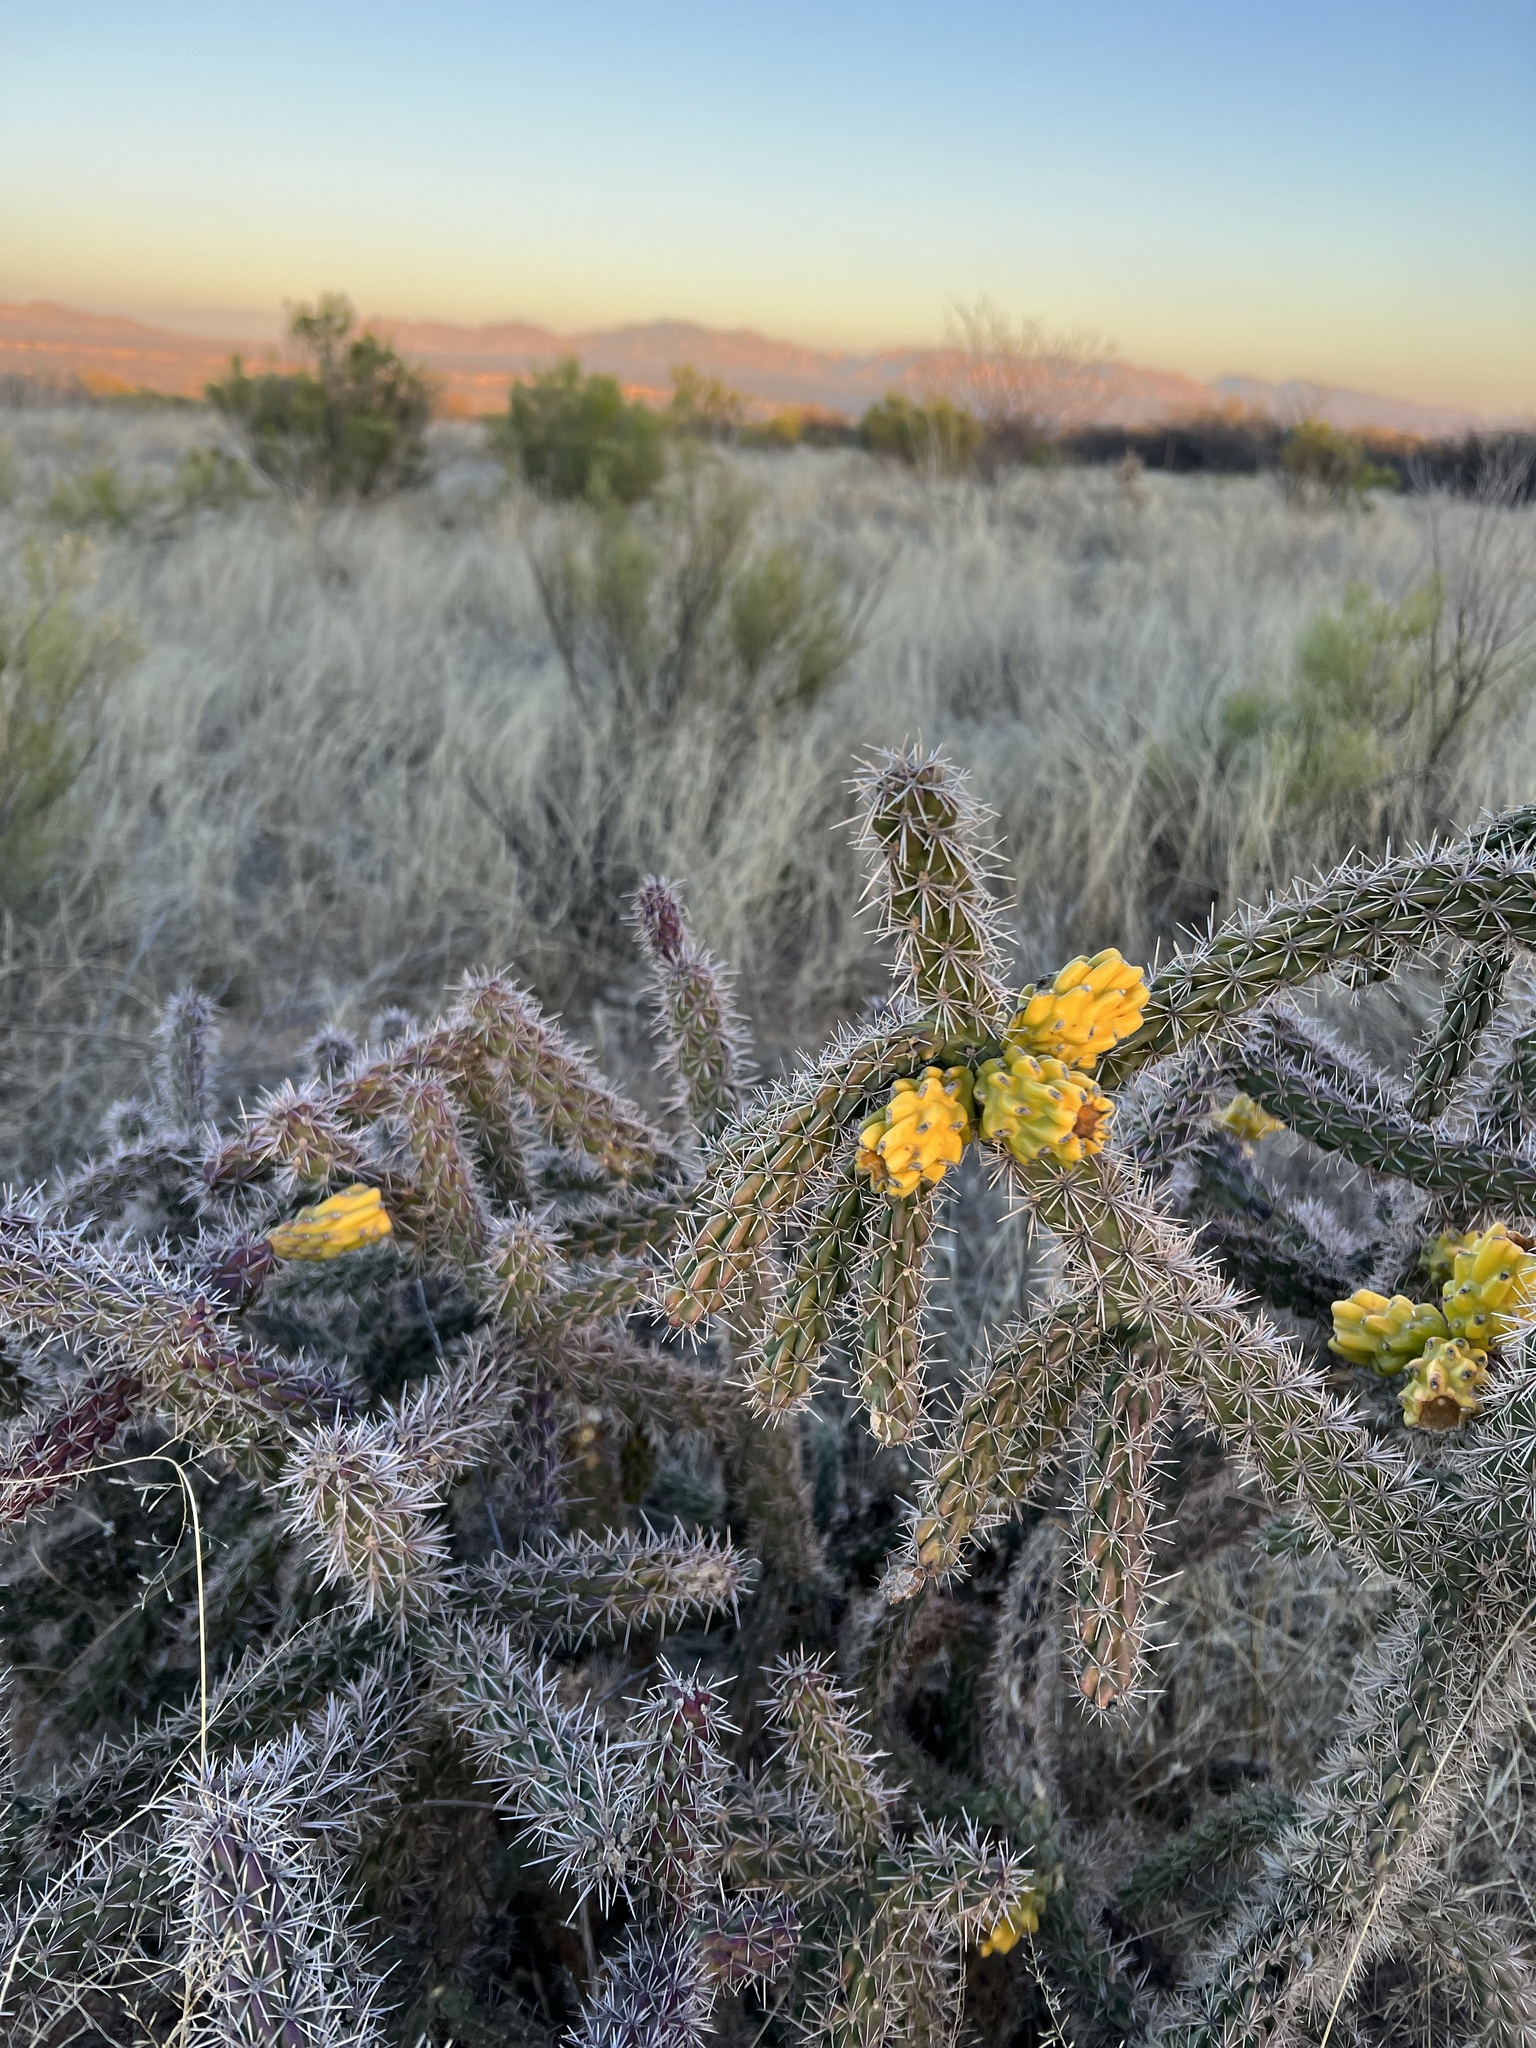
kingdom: Plantae
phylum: Tracheophyta
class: Magnoliopsida
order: Caryophyllales
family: Cactaceae
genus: Cylindropuntia
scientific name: Cylindropuntia imbricata
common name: Candelabrum cactus
